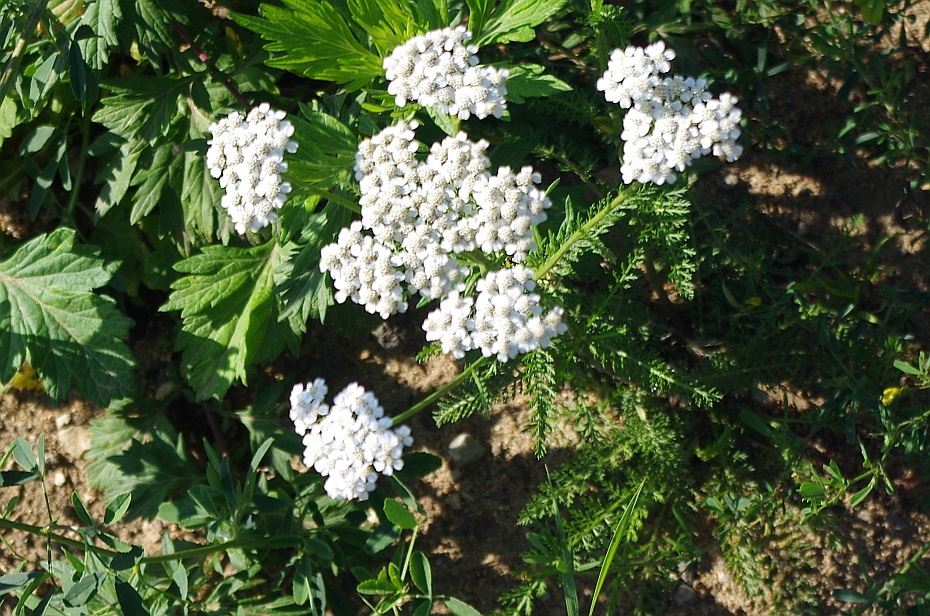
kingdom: Plantae
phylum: Tracheophyta
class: Magnoliopsida
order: Asterales
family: Asteraceae
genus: Achillea
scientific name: Achillea millefolium
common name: Yarrow
